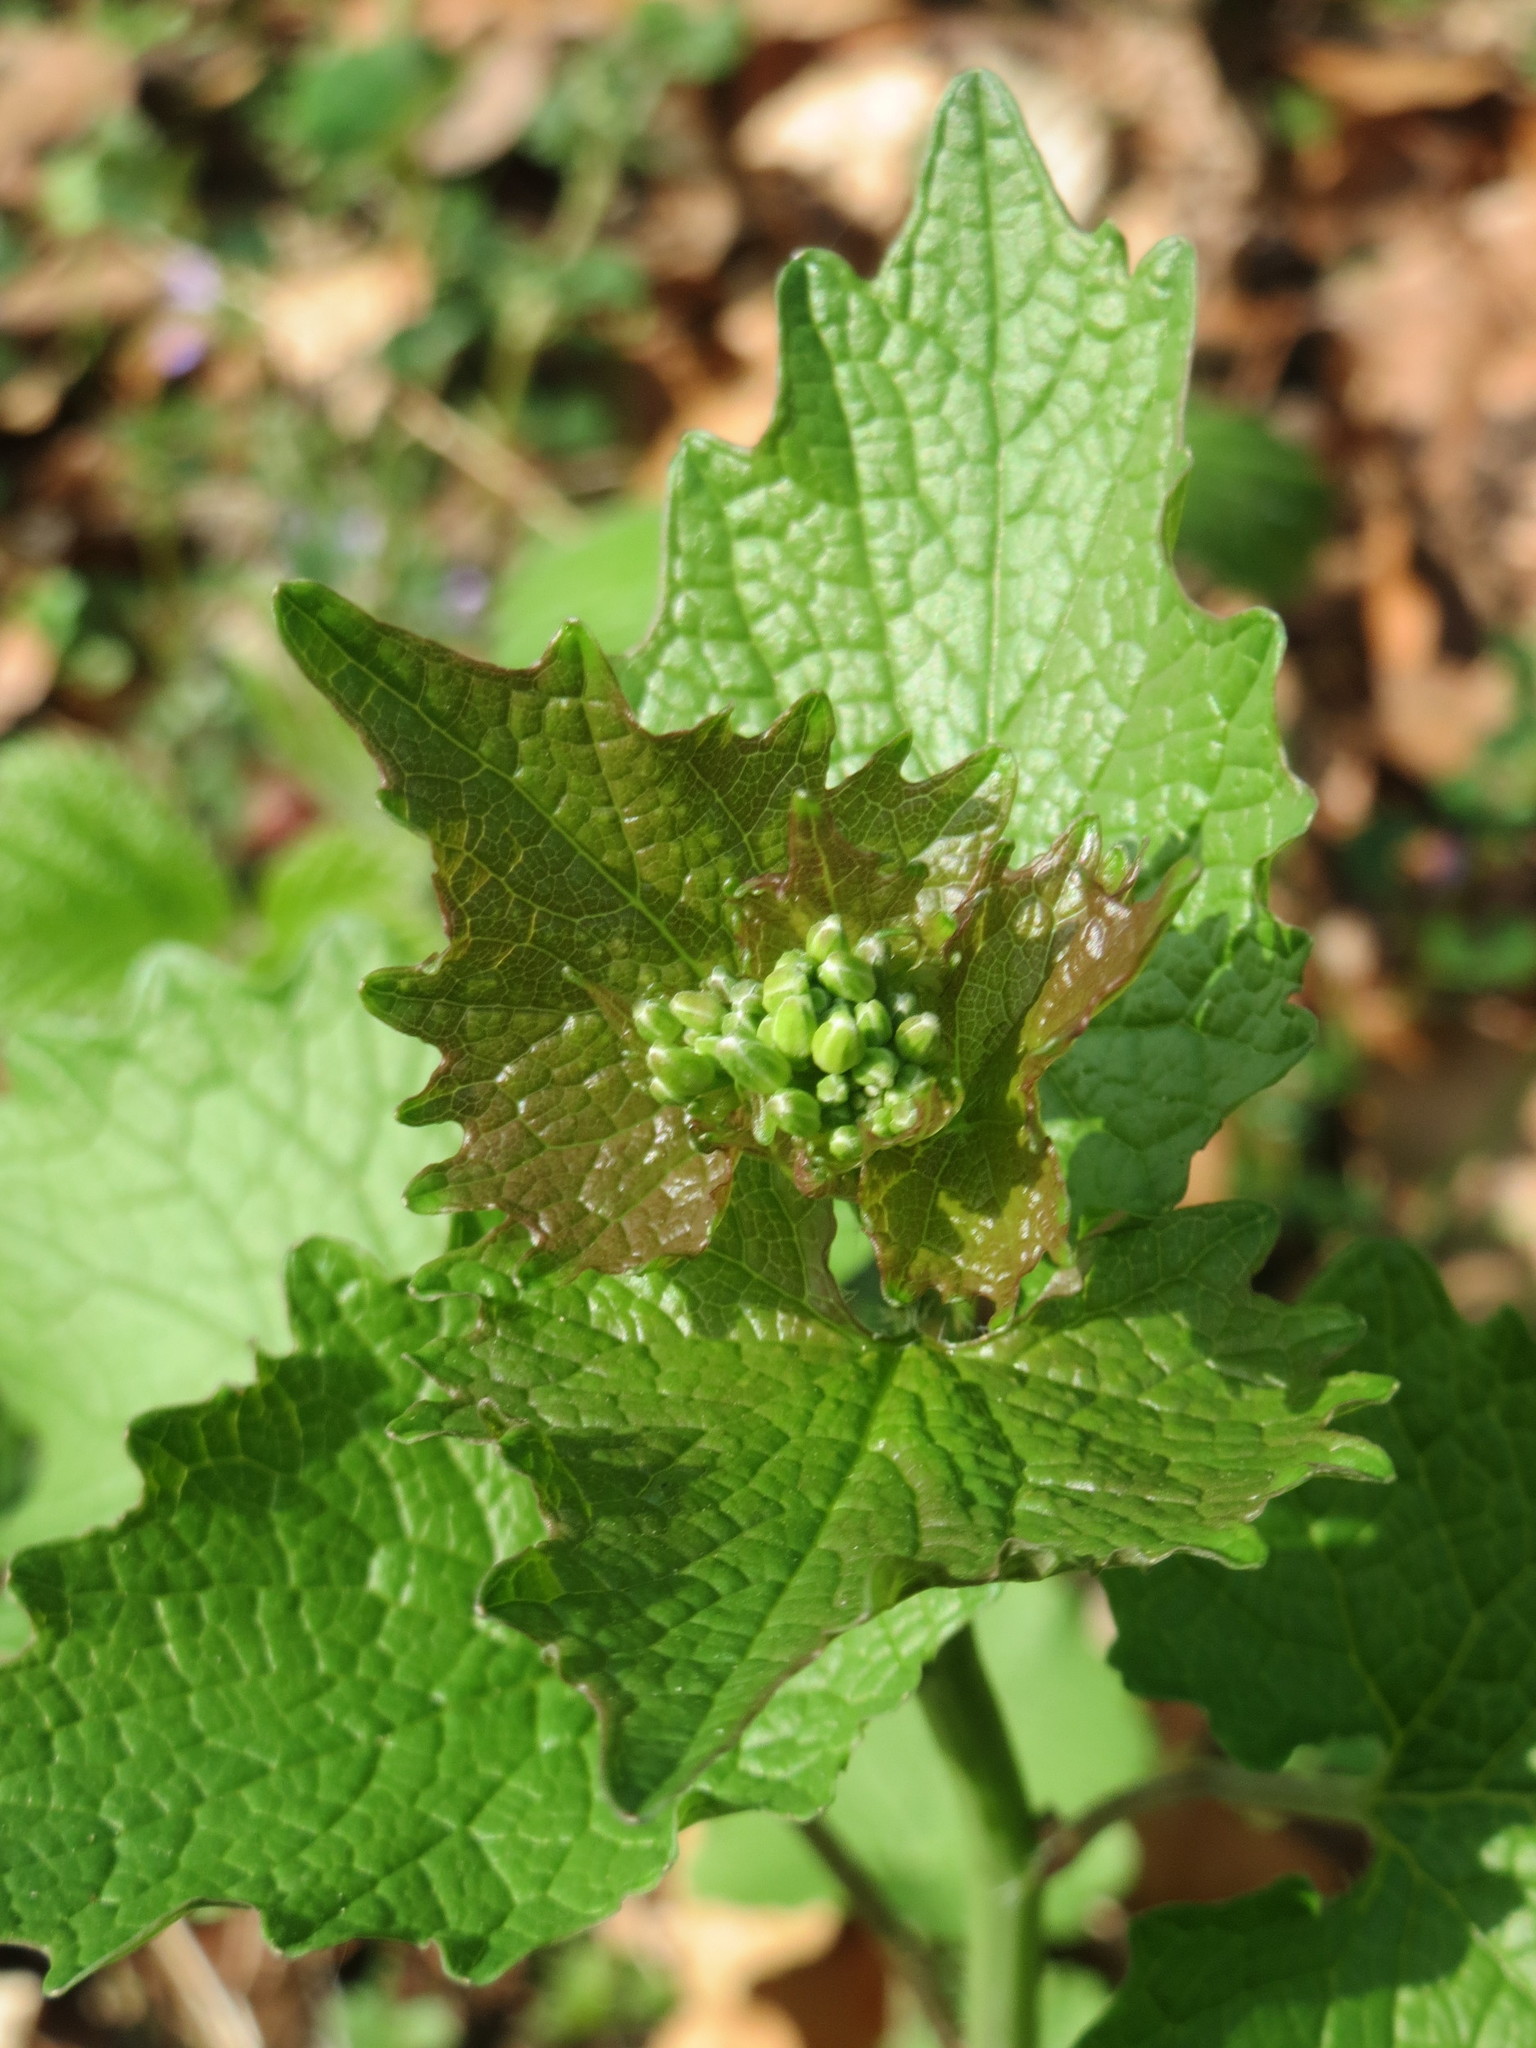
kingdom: Plantae
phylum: Tracheophyta
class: Magnoliopsida
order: Brassicales
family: Brassicaceae
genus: Alliaria
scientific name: Alliaria petiolata
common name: Garlic mustard
